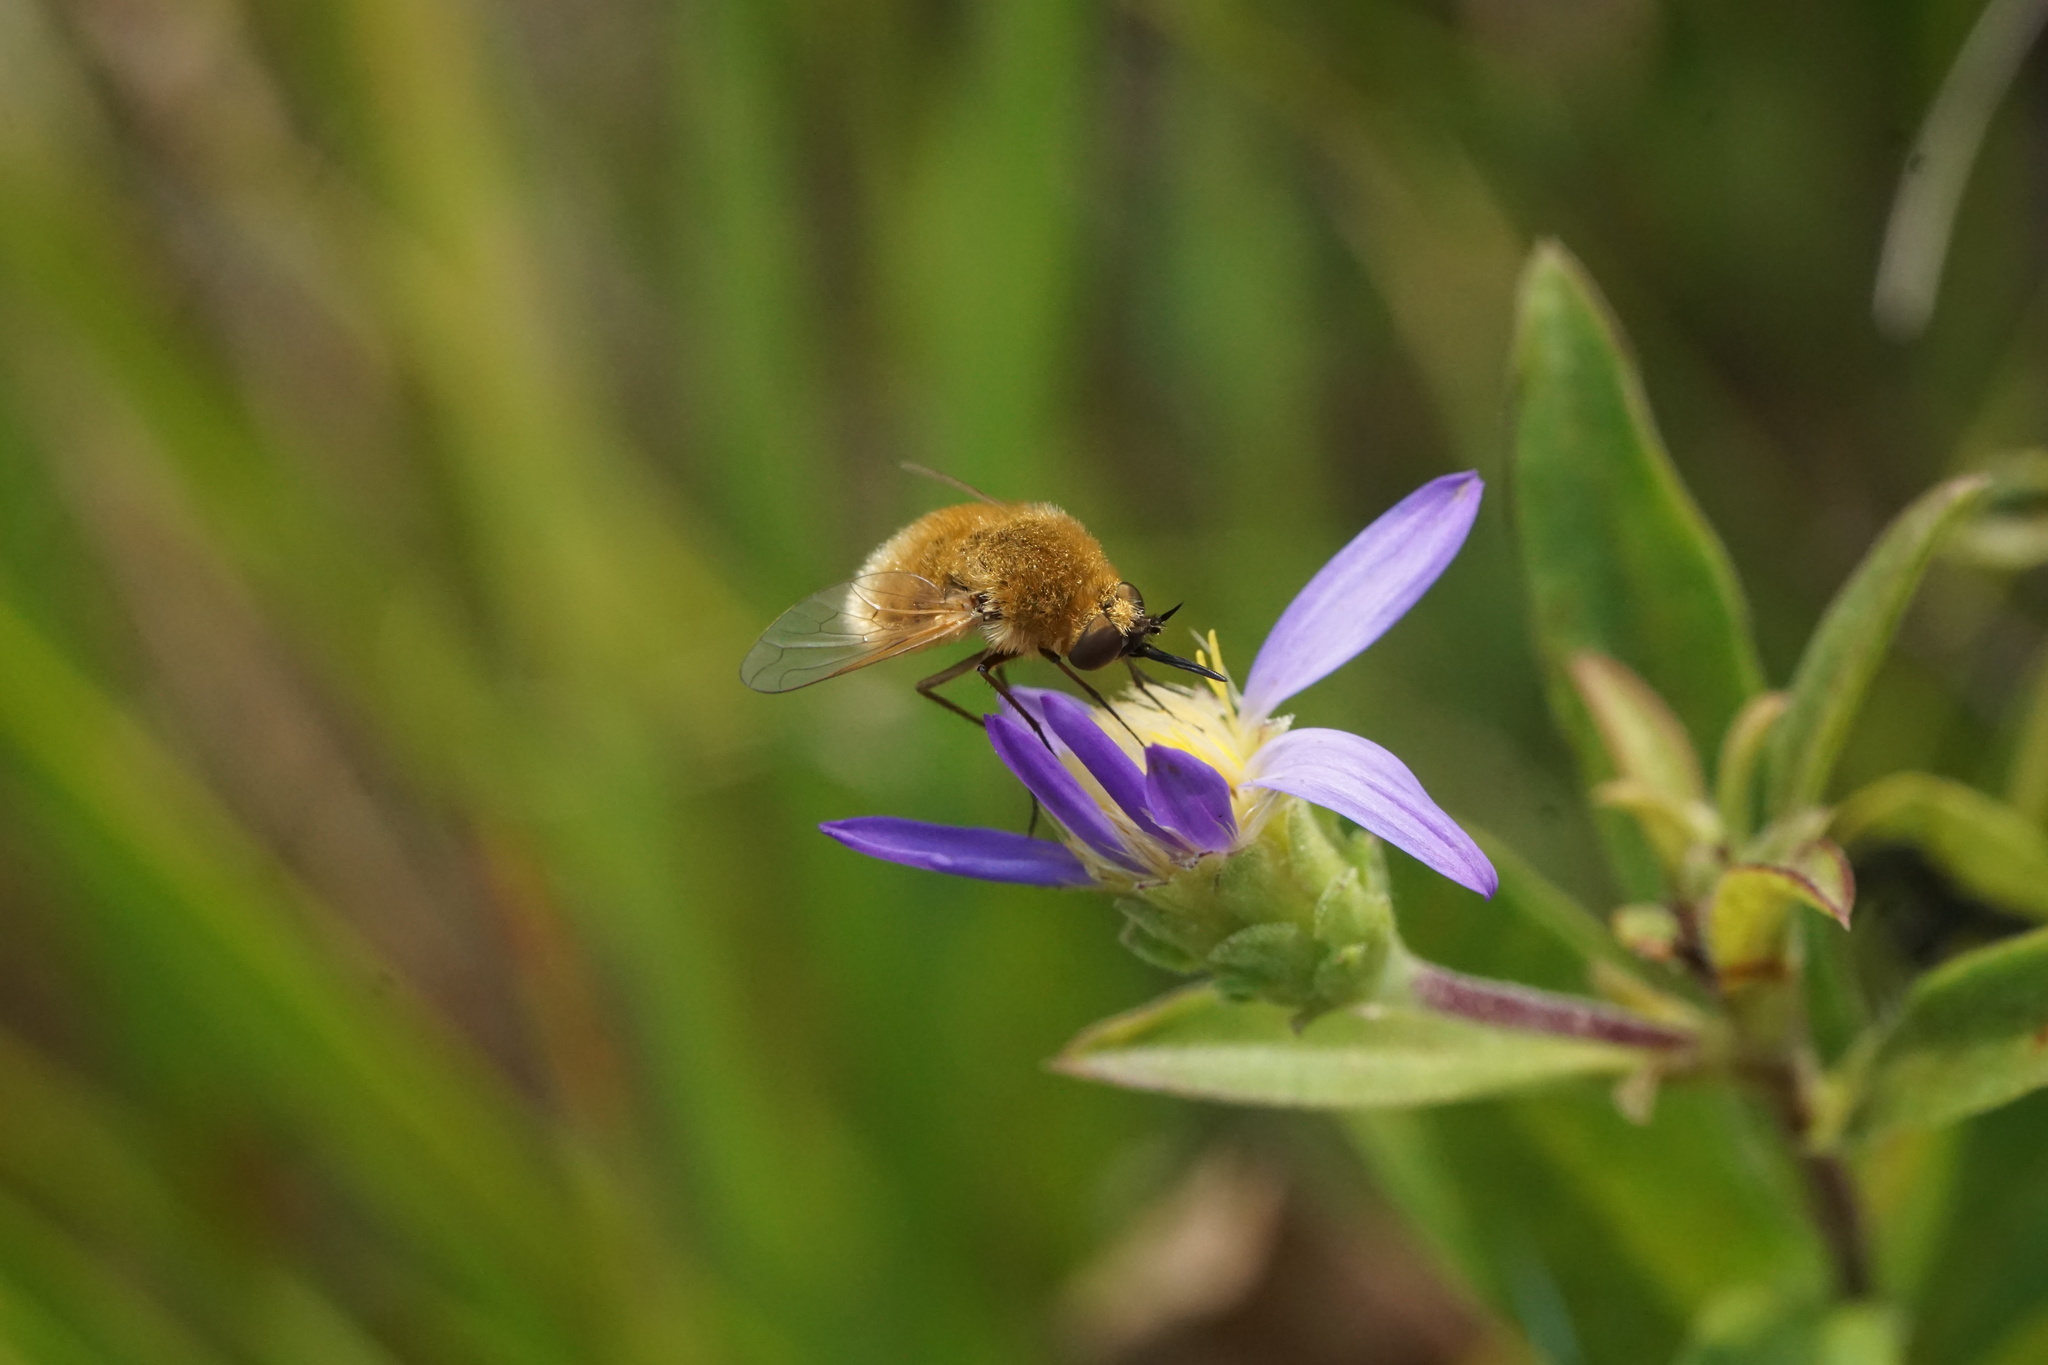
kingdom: Animalia
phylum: Arthropoda
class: Insecta
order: Diptera
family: Bombyliidae
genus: Sparnopolius
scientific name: Sparnopolius confusus
